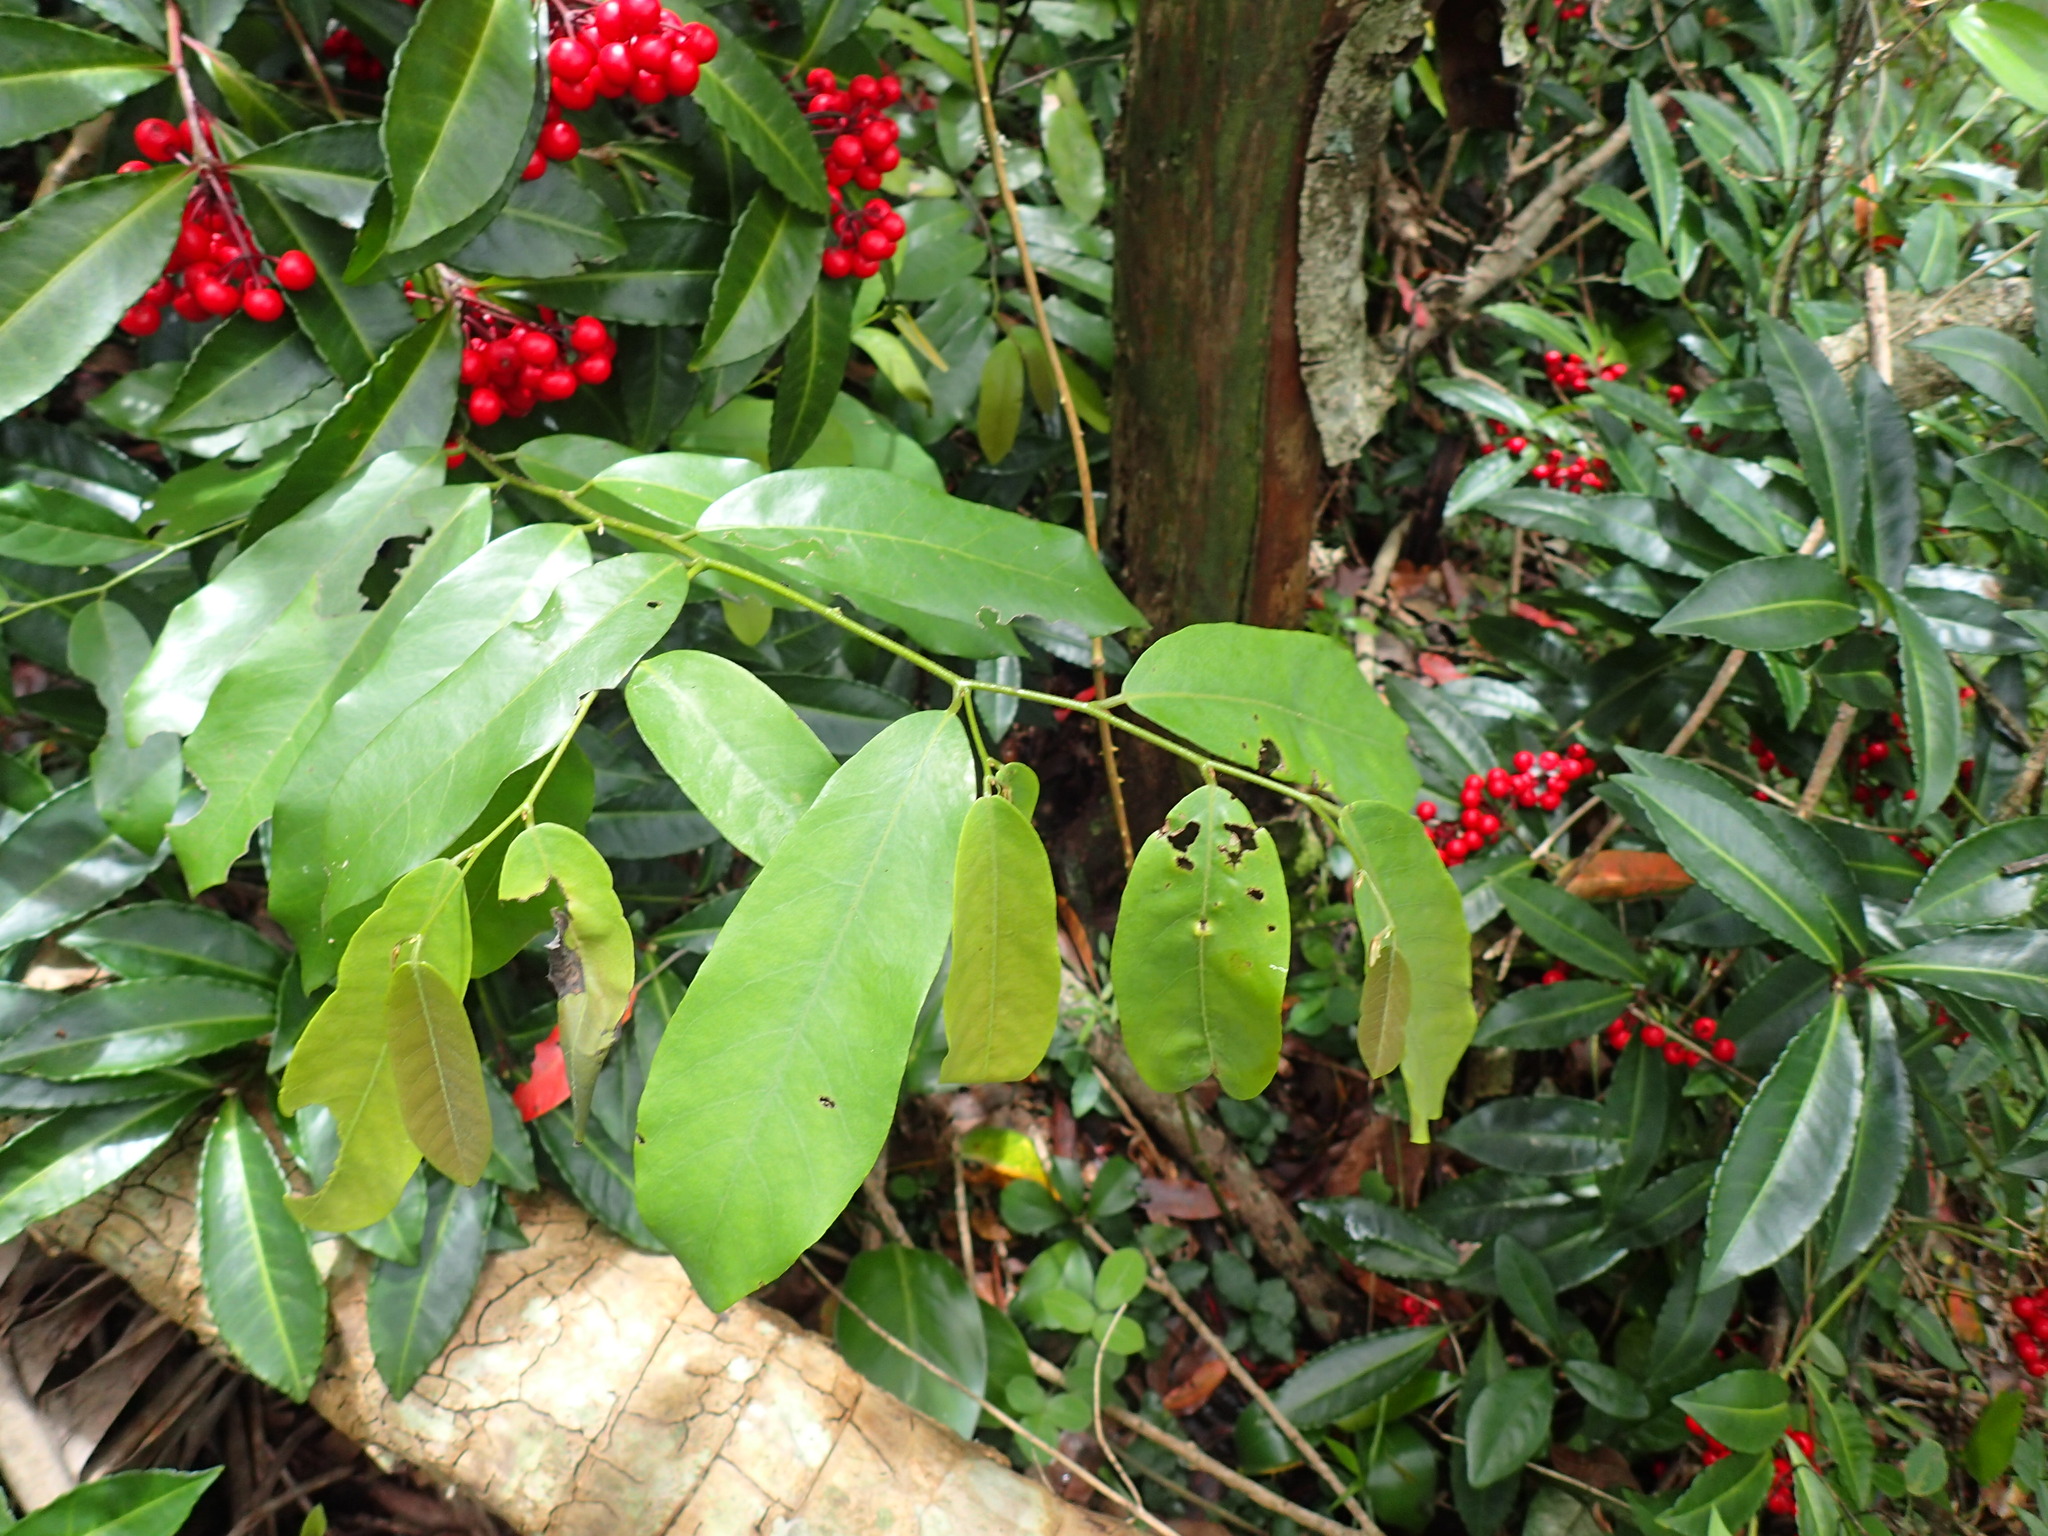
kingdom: Plantae
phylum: Tracheophyta
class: Magnoliopsida
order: Magnoliales
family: Annonaceae
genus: Monanthotaxis
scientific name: Monanthotaxis caffra
